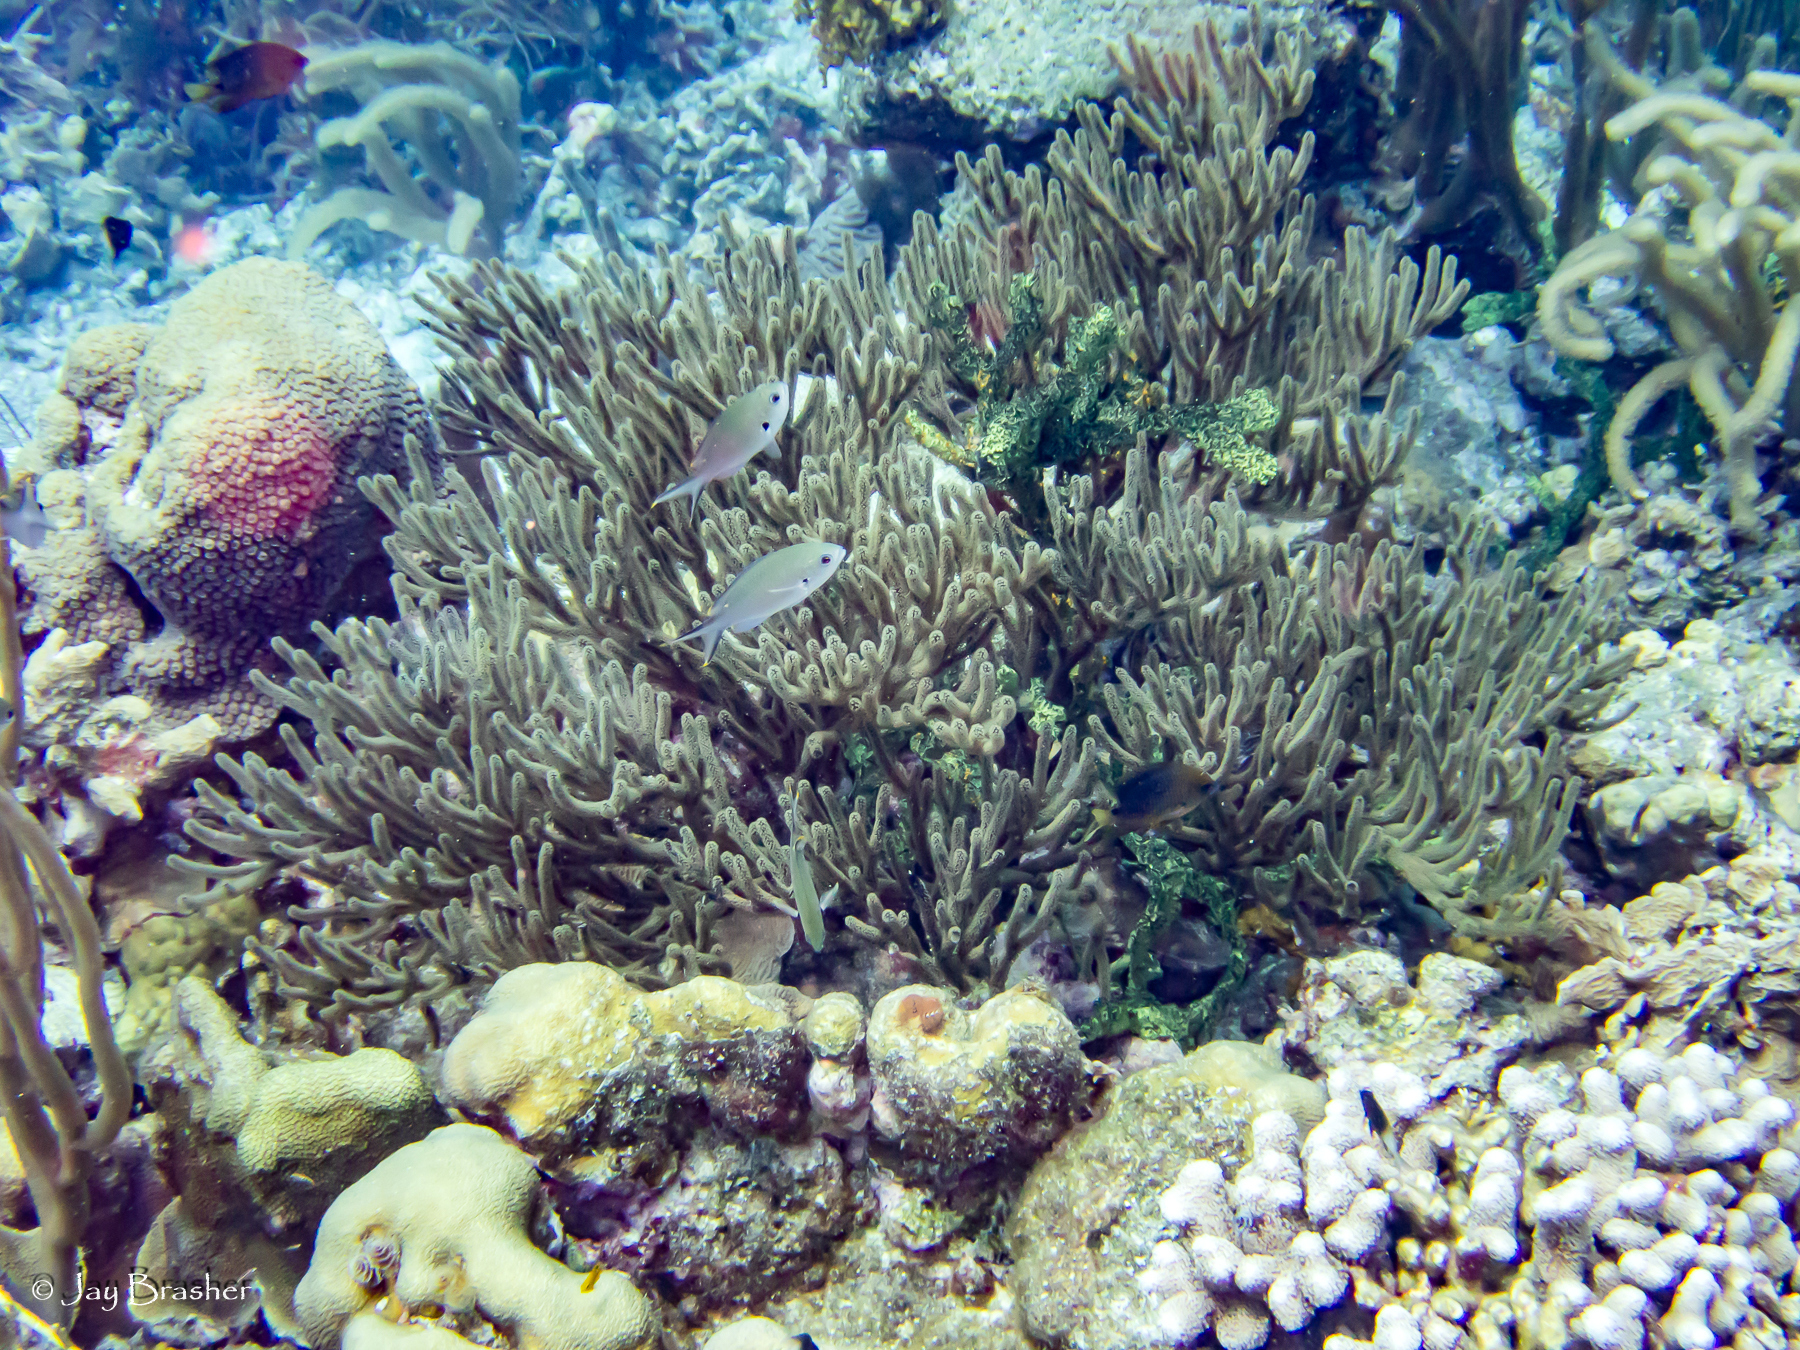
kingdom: Animalia
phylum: Chordata
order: Perciformes
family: Pomacentridae
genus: Chromis
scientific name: Chromis multilineata
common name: Brown chromis
